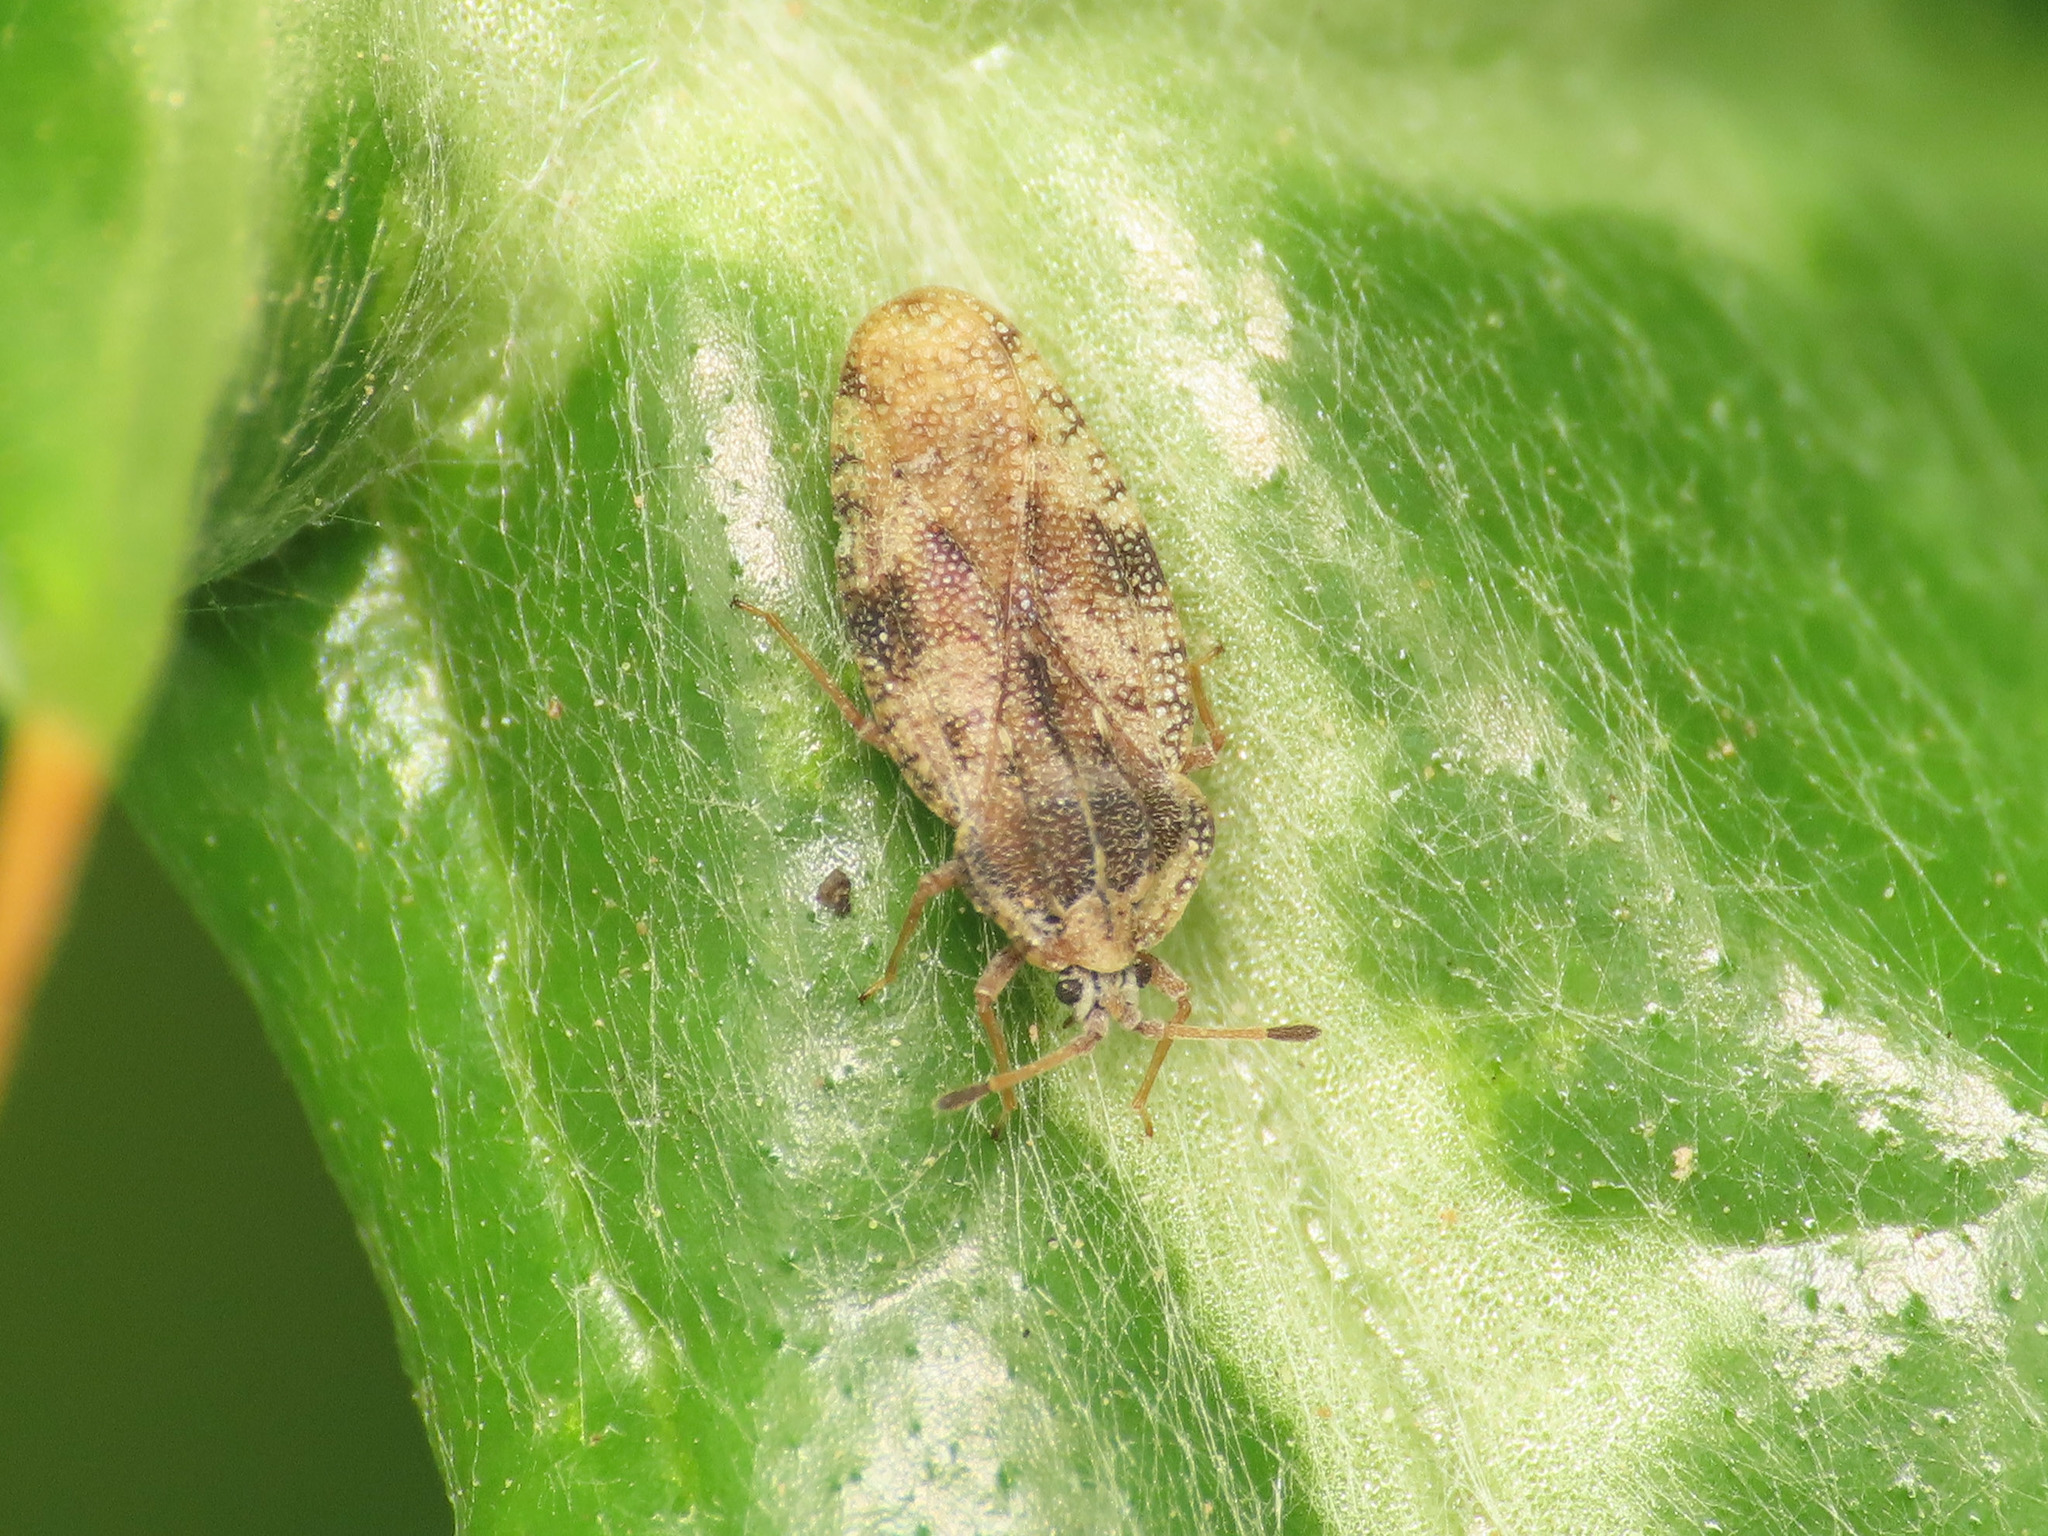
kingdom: Animalia
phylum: Arthropoda
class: Insecta
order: Hemiptera
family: Tingidae
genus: Tingis
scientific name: Tingis cardui
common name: Spear thistle lacebug
